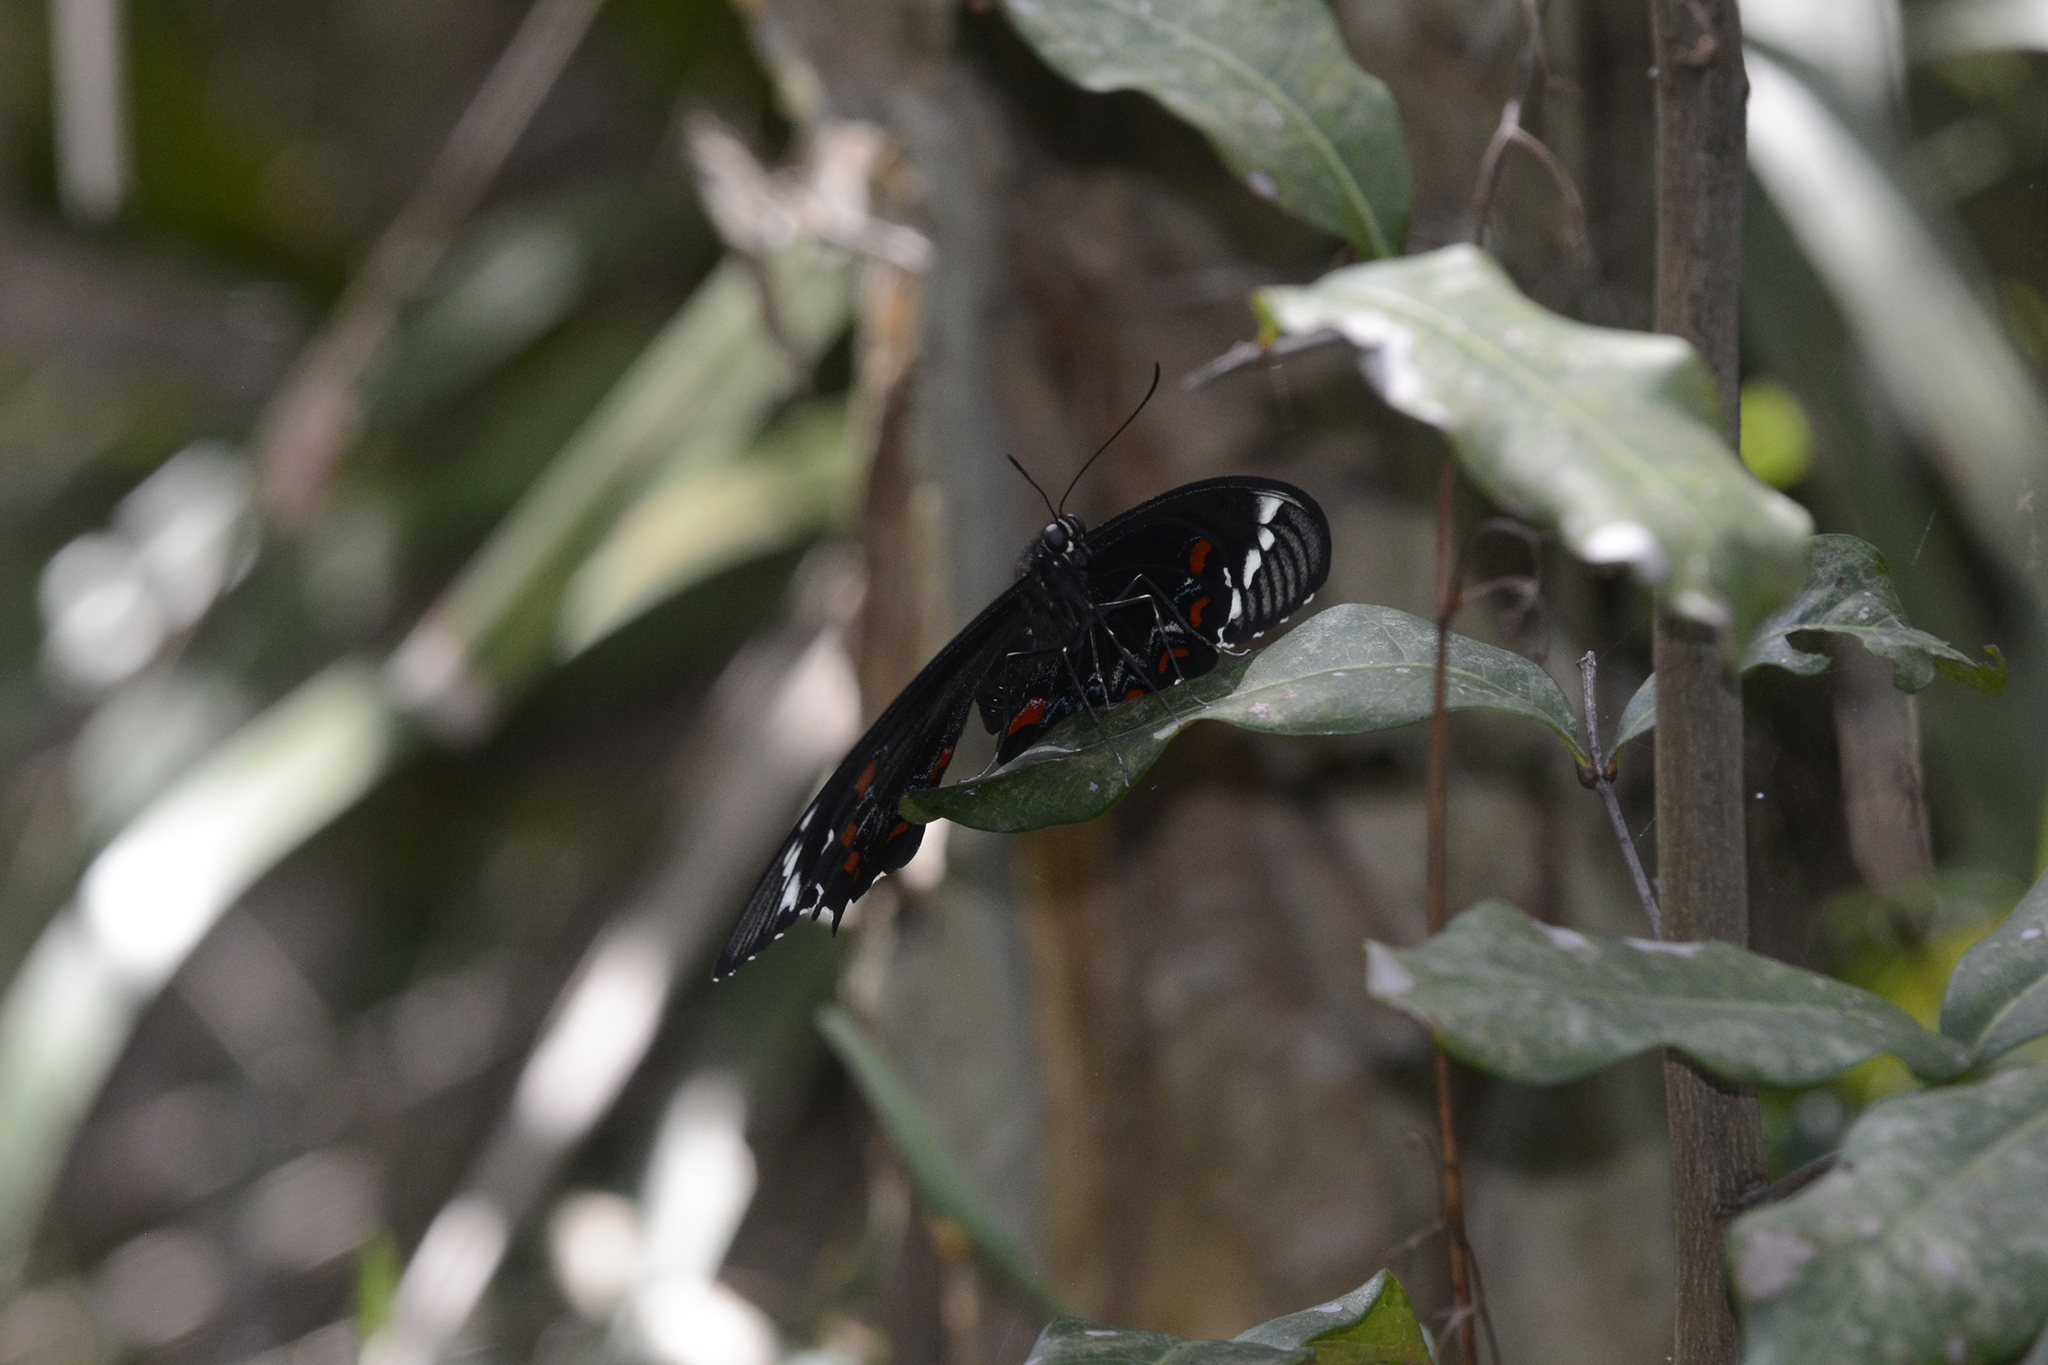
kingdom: Animalia
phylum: Arthropoda
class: Insecta
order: Lepidoptera
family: Papilionidae
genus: Papilio
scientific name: Papilio aegeus
